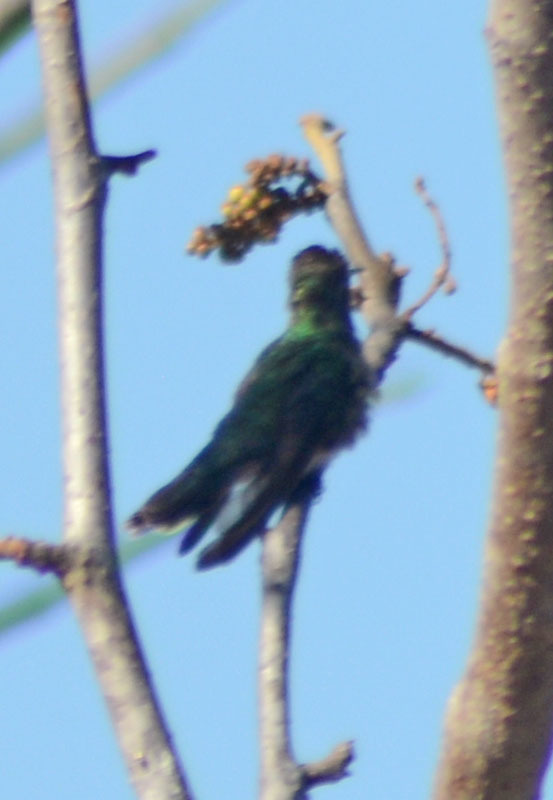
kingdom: Animalia
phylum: Chordata
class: Aves
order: Apodiformes
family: Trochilidae
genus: Cynanthus
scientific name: Cynanthus auriceps
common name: Golden-crowned emerald
